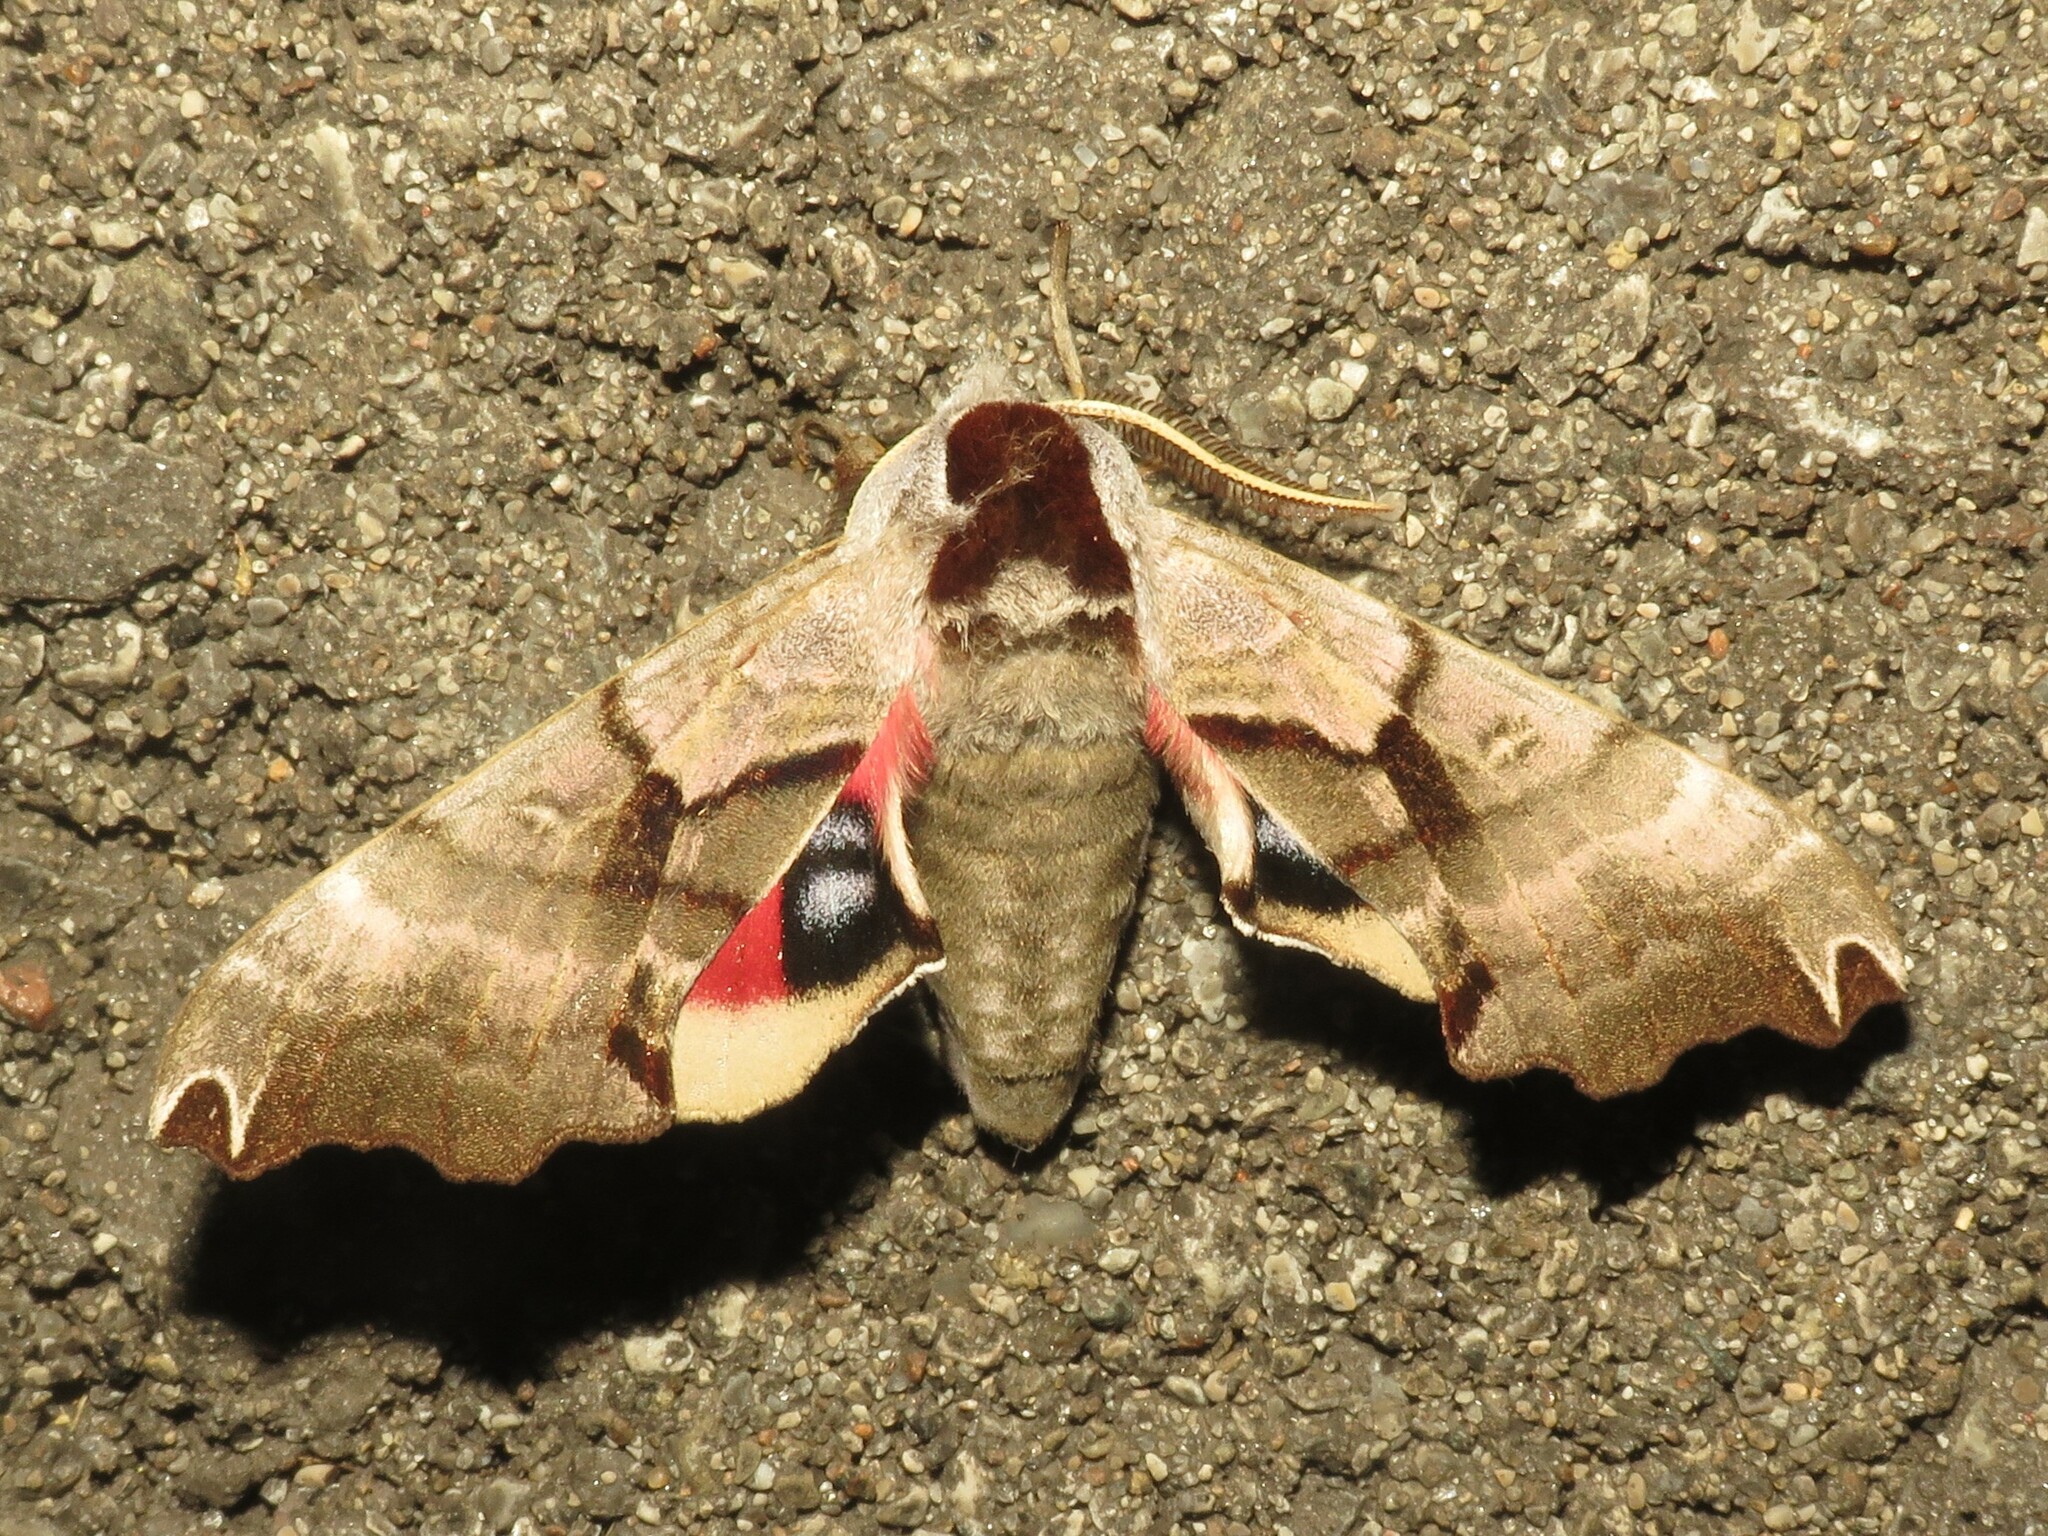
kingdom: Animalia
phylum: Arthropoda
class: Insecta
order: Lepidoptera
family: Sphingidae
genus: Smerinthus
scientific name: Smerinthus jamaicensis
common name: Twin spotted sphinx
